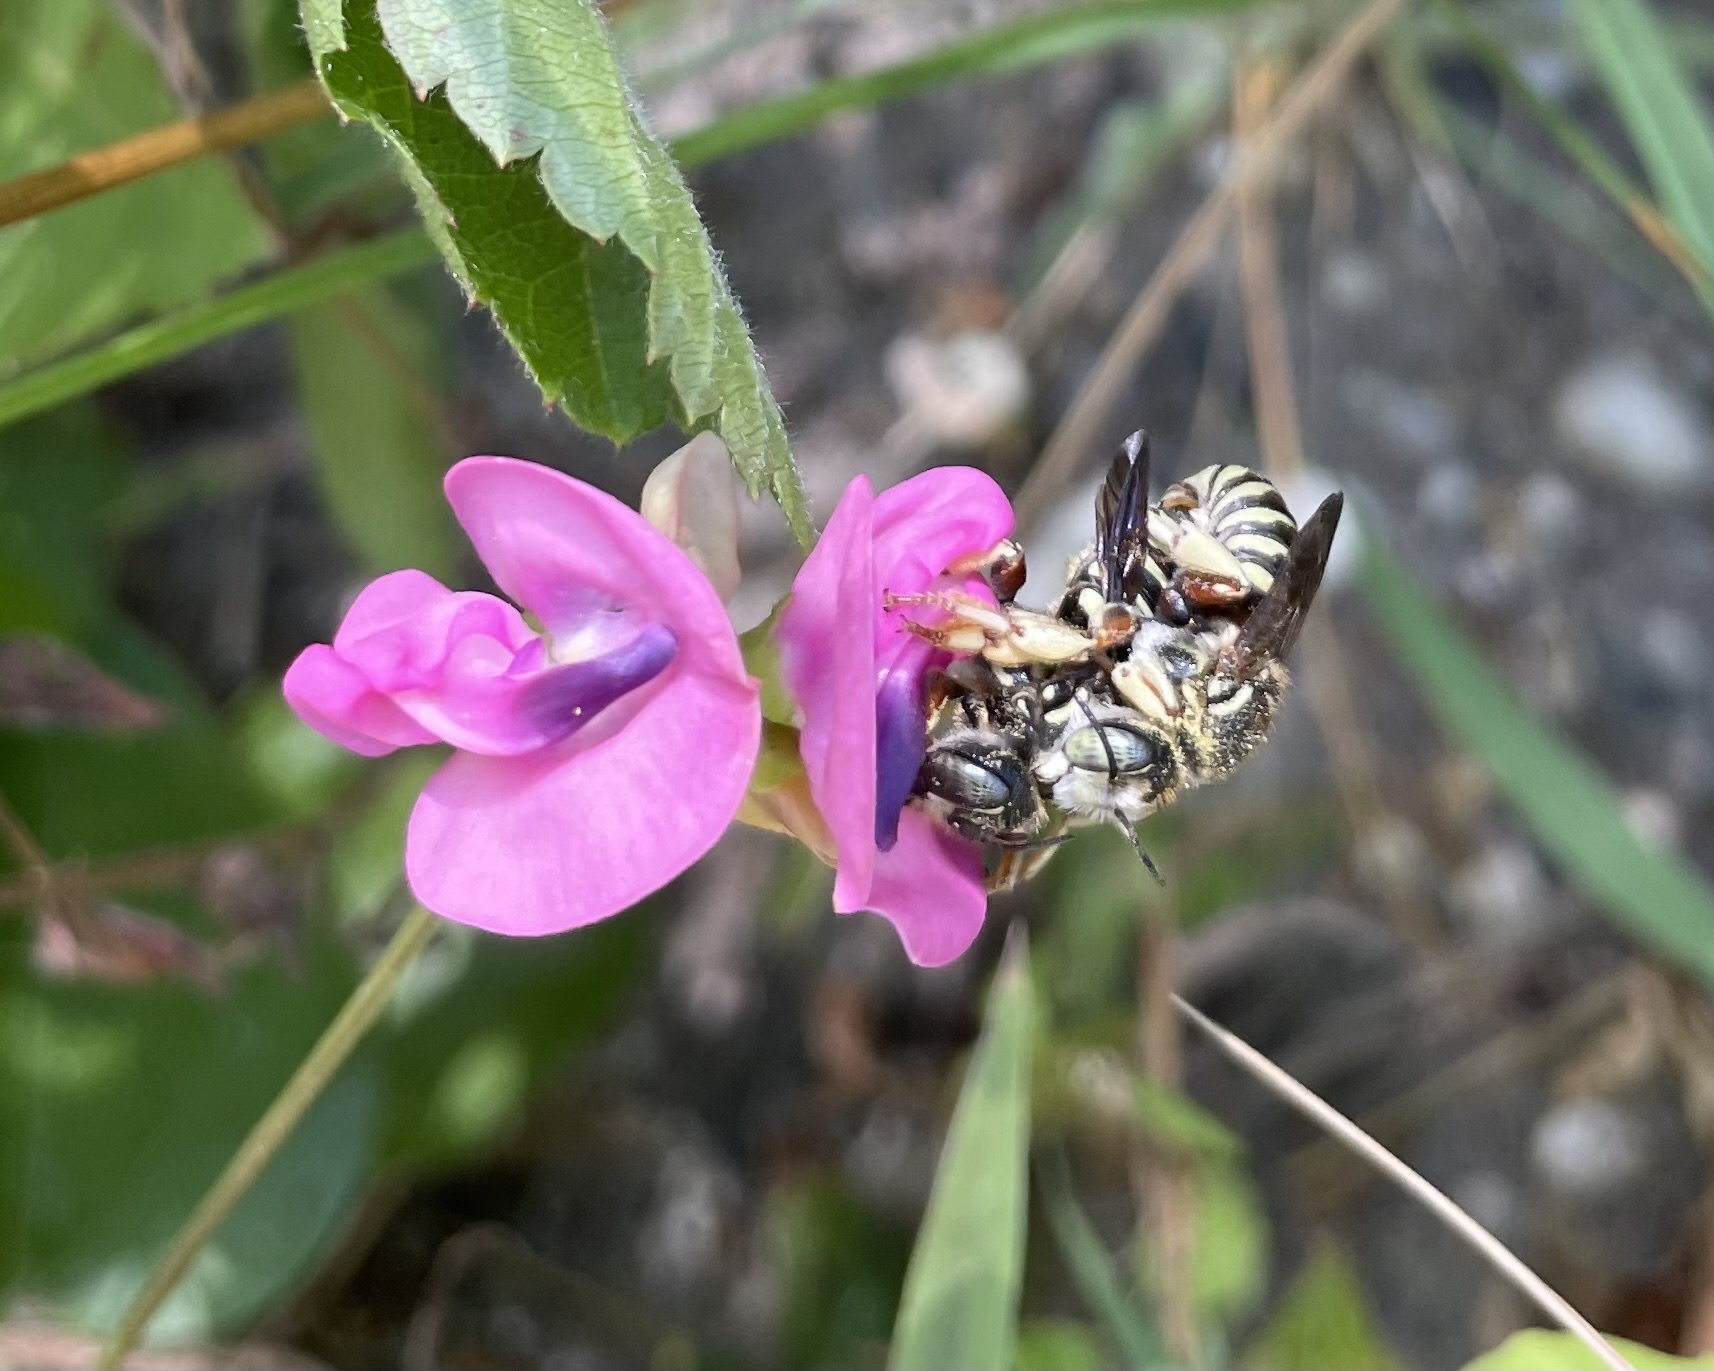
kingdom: Animalia
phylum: Arthropoda
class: Insecta
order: Hymenoptera
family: Megachilidae
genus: Trachusa
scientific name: Trachusa dorsalis
